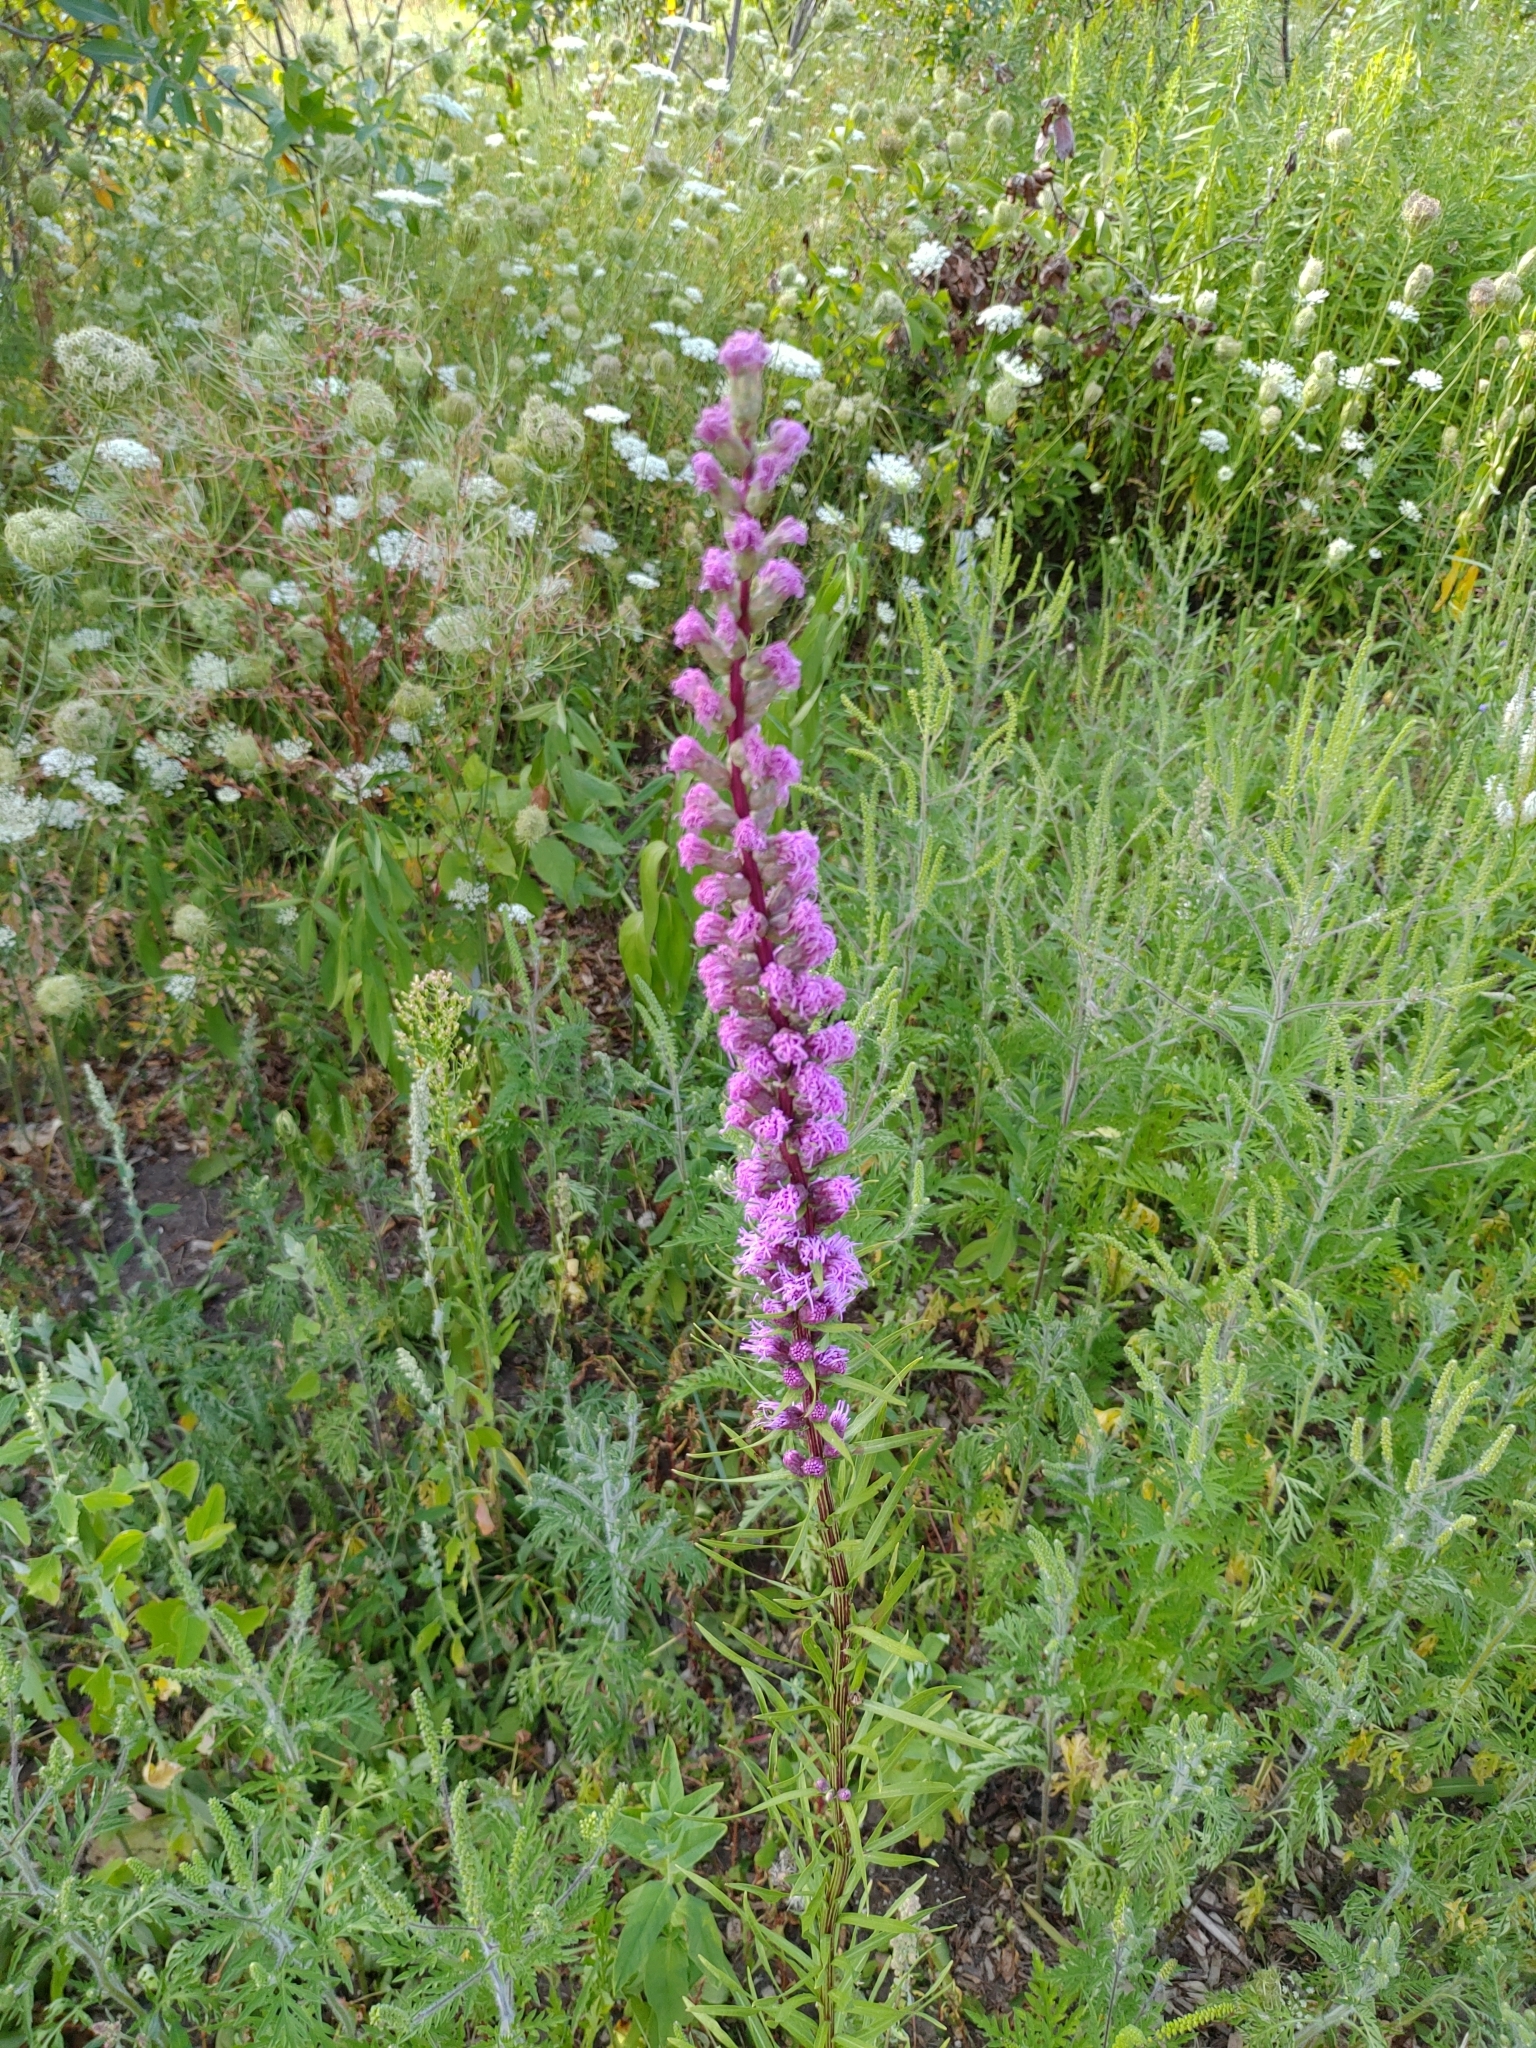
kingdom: Plantae
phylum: Tracheophyta
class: Magnoliopsida
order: Asterales
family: Asteraceae
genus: Liatris
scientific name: Liatris spicata
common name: Florist gayfeather
